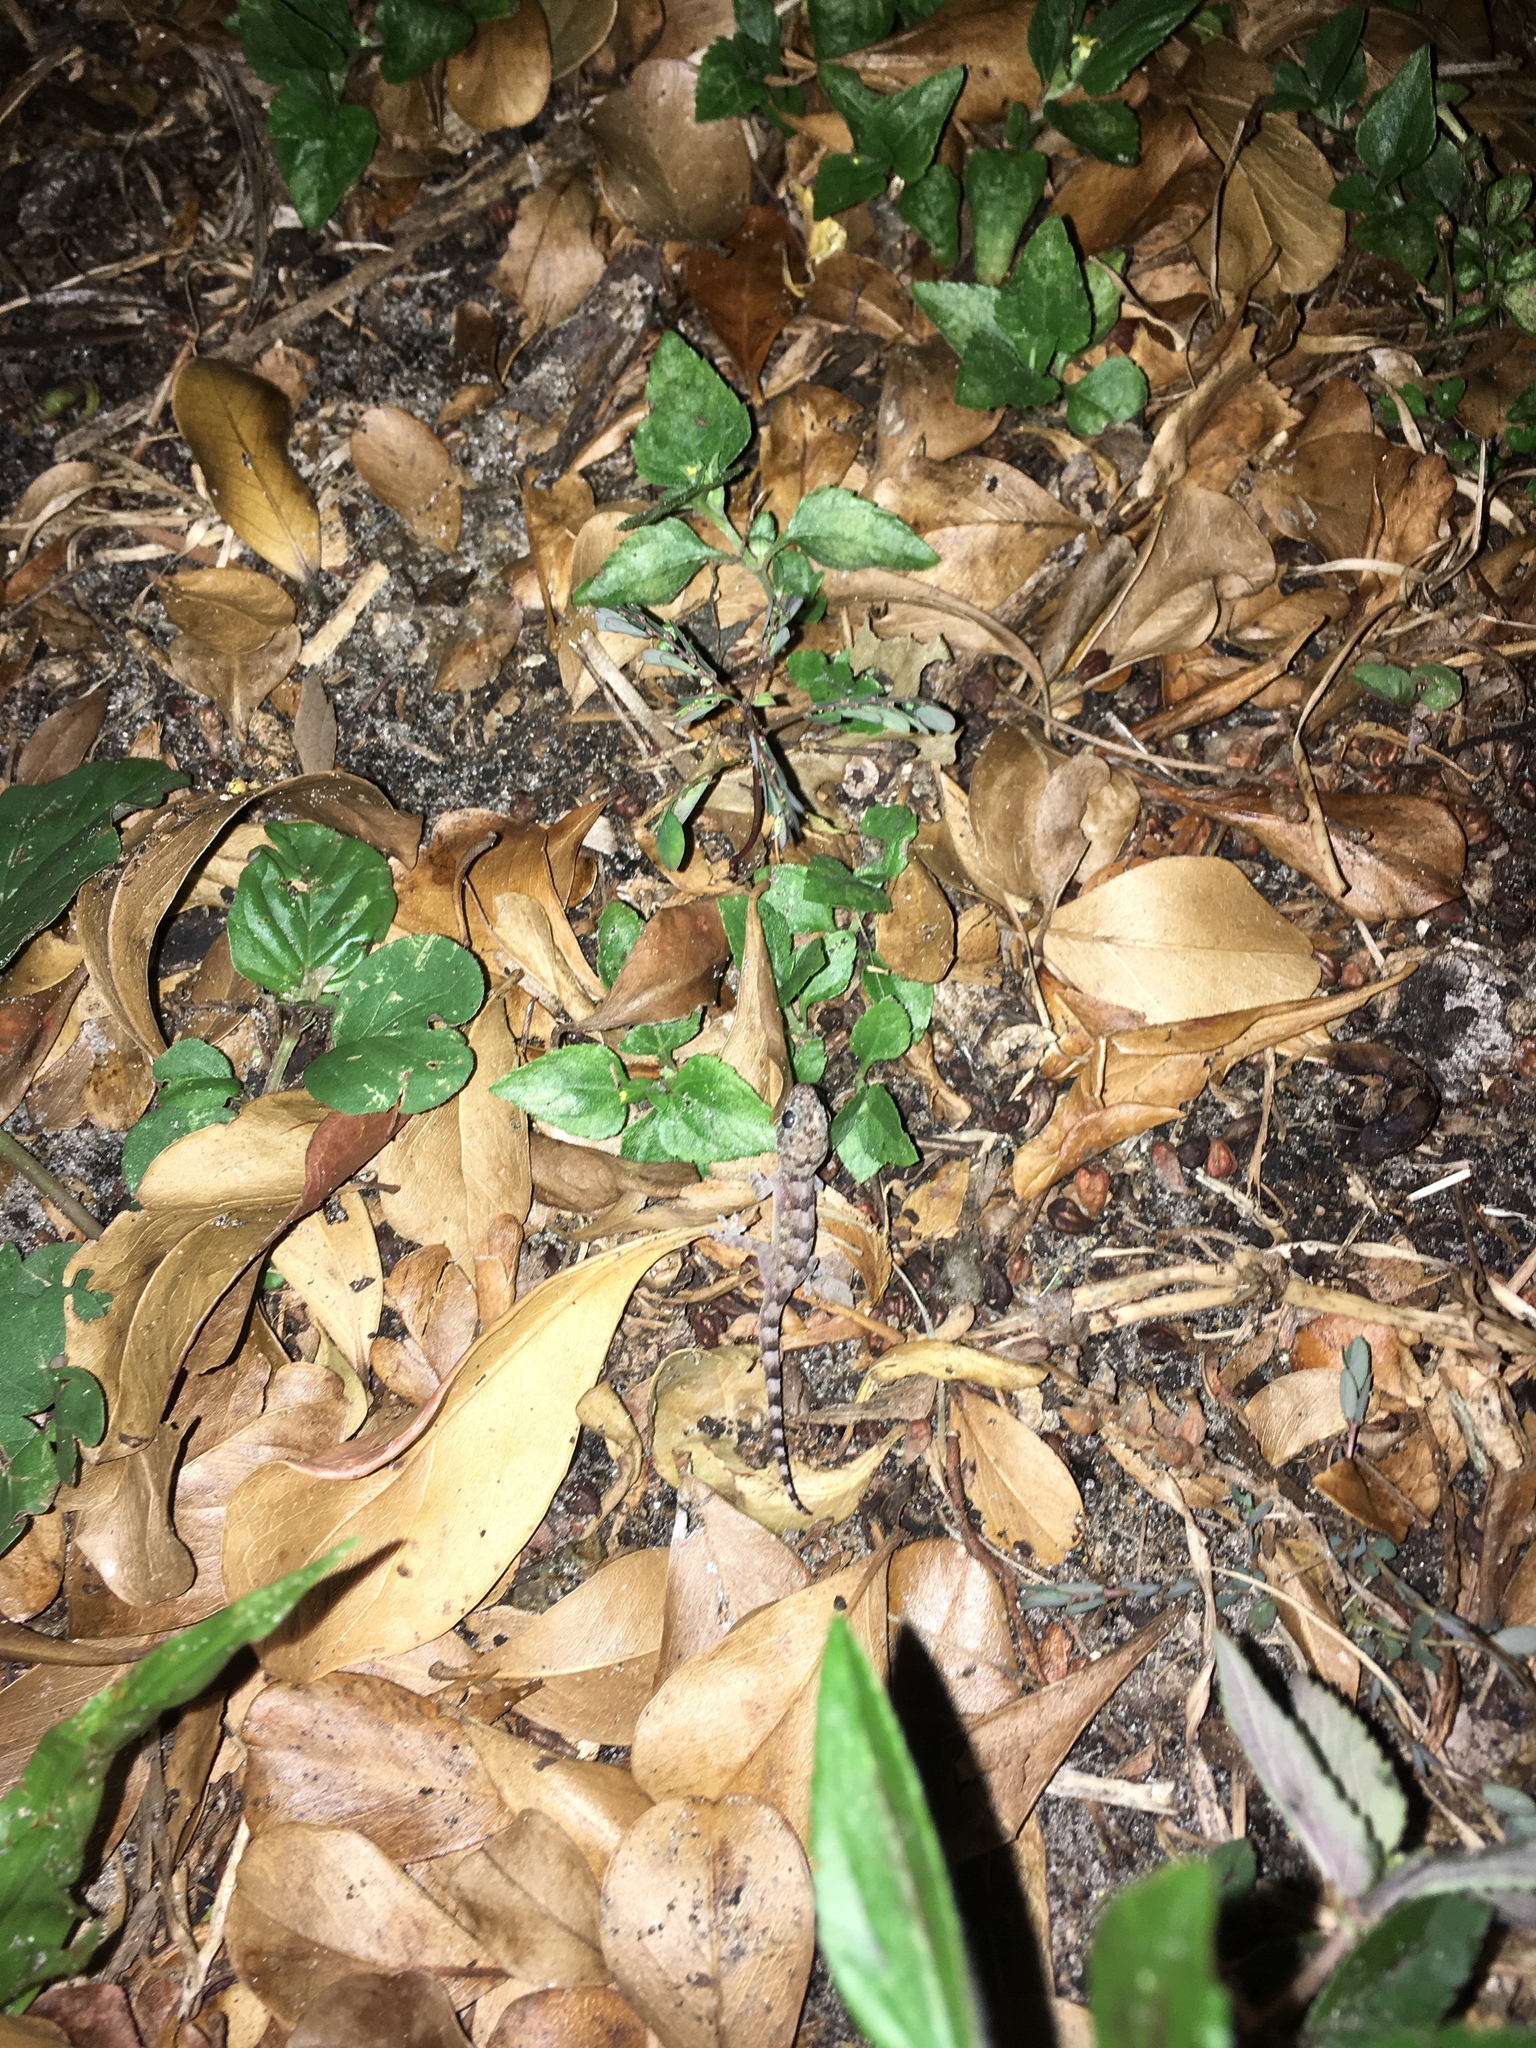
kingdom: Animalia
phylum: Chordata
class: Squamata
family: Gekkonidae
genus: Hemidactylus
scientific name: Hemidactylus mabouia
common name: House gecko
